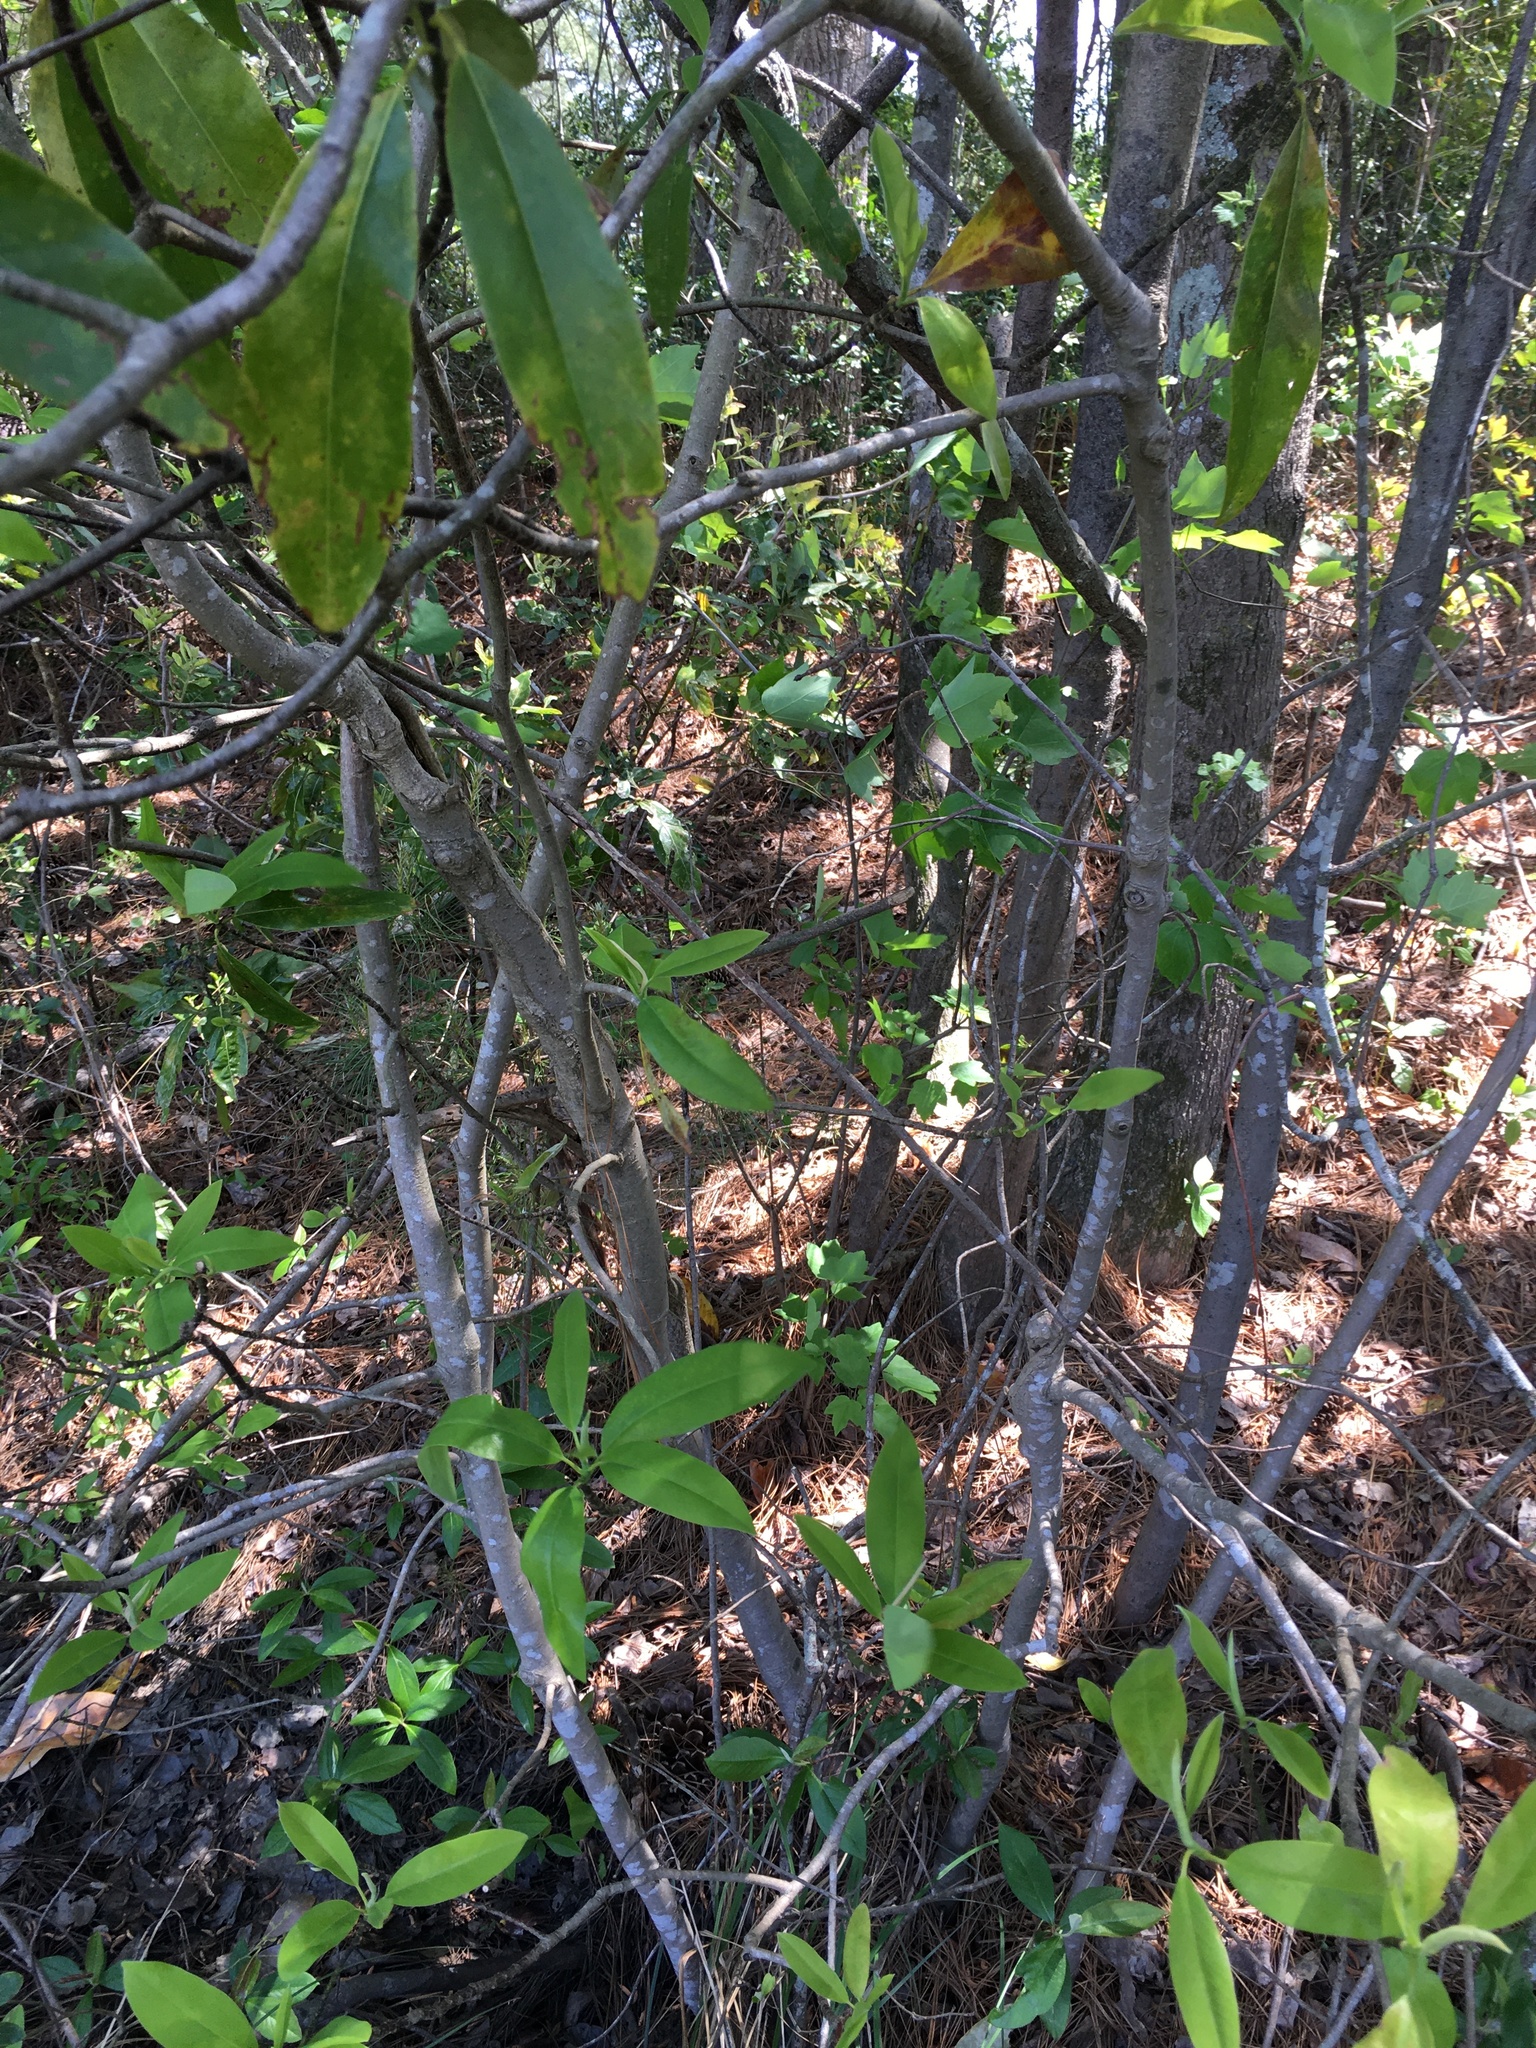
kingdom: Plantae
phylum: Tracheophyta
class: Magnoliopsida
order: Magnoliales
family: Magnoliaceae
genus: Magnolia
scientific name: Magnolia virginiana
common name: Swamp bay
